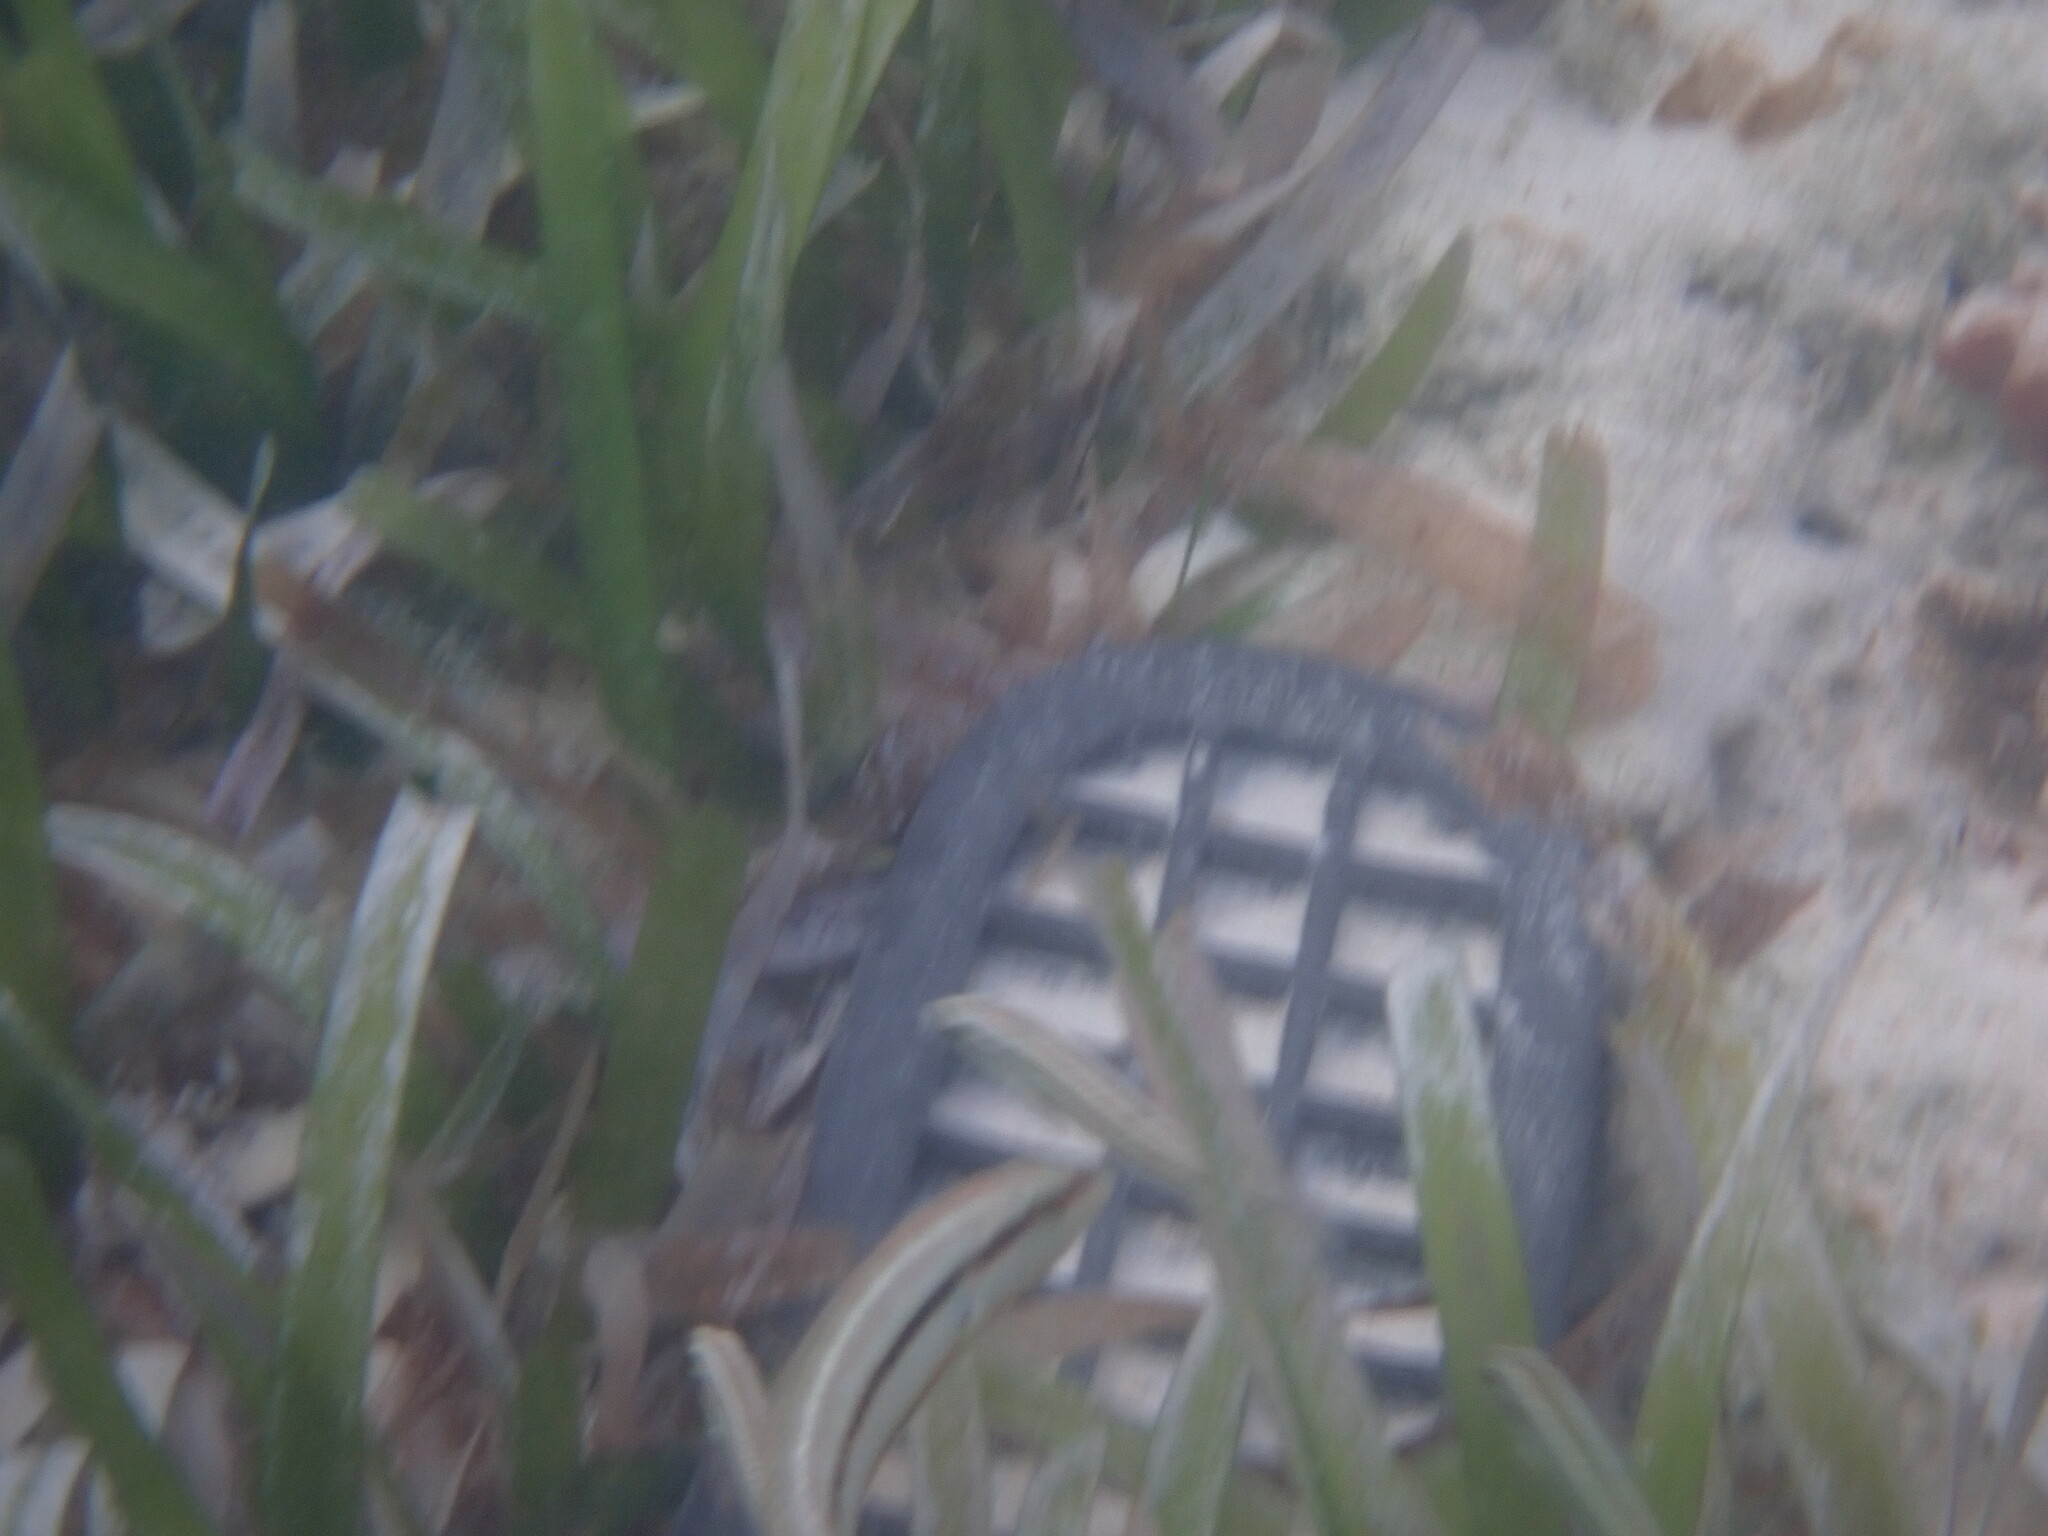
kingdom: Animalia
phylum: Chordata
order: Perciformes
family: Labridae
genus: Halichoeres
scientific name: Halichoeres bivittatus
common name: Slippery dick
